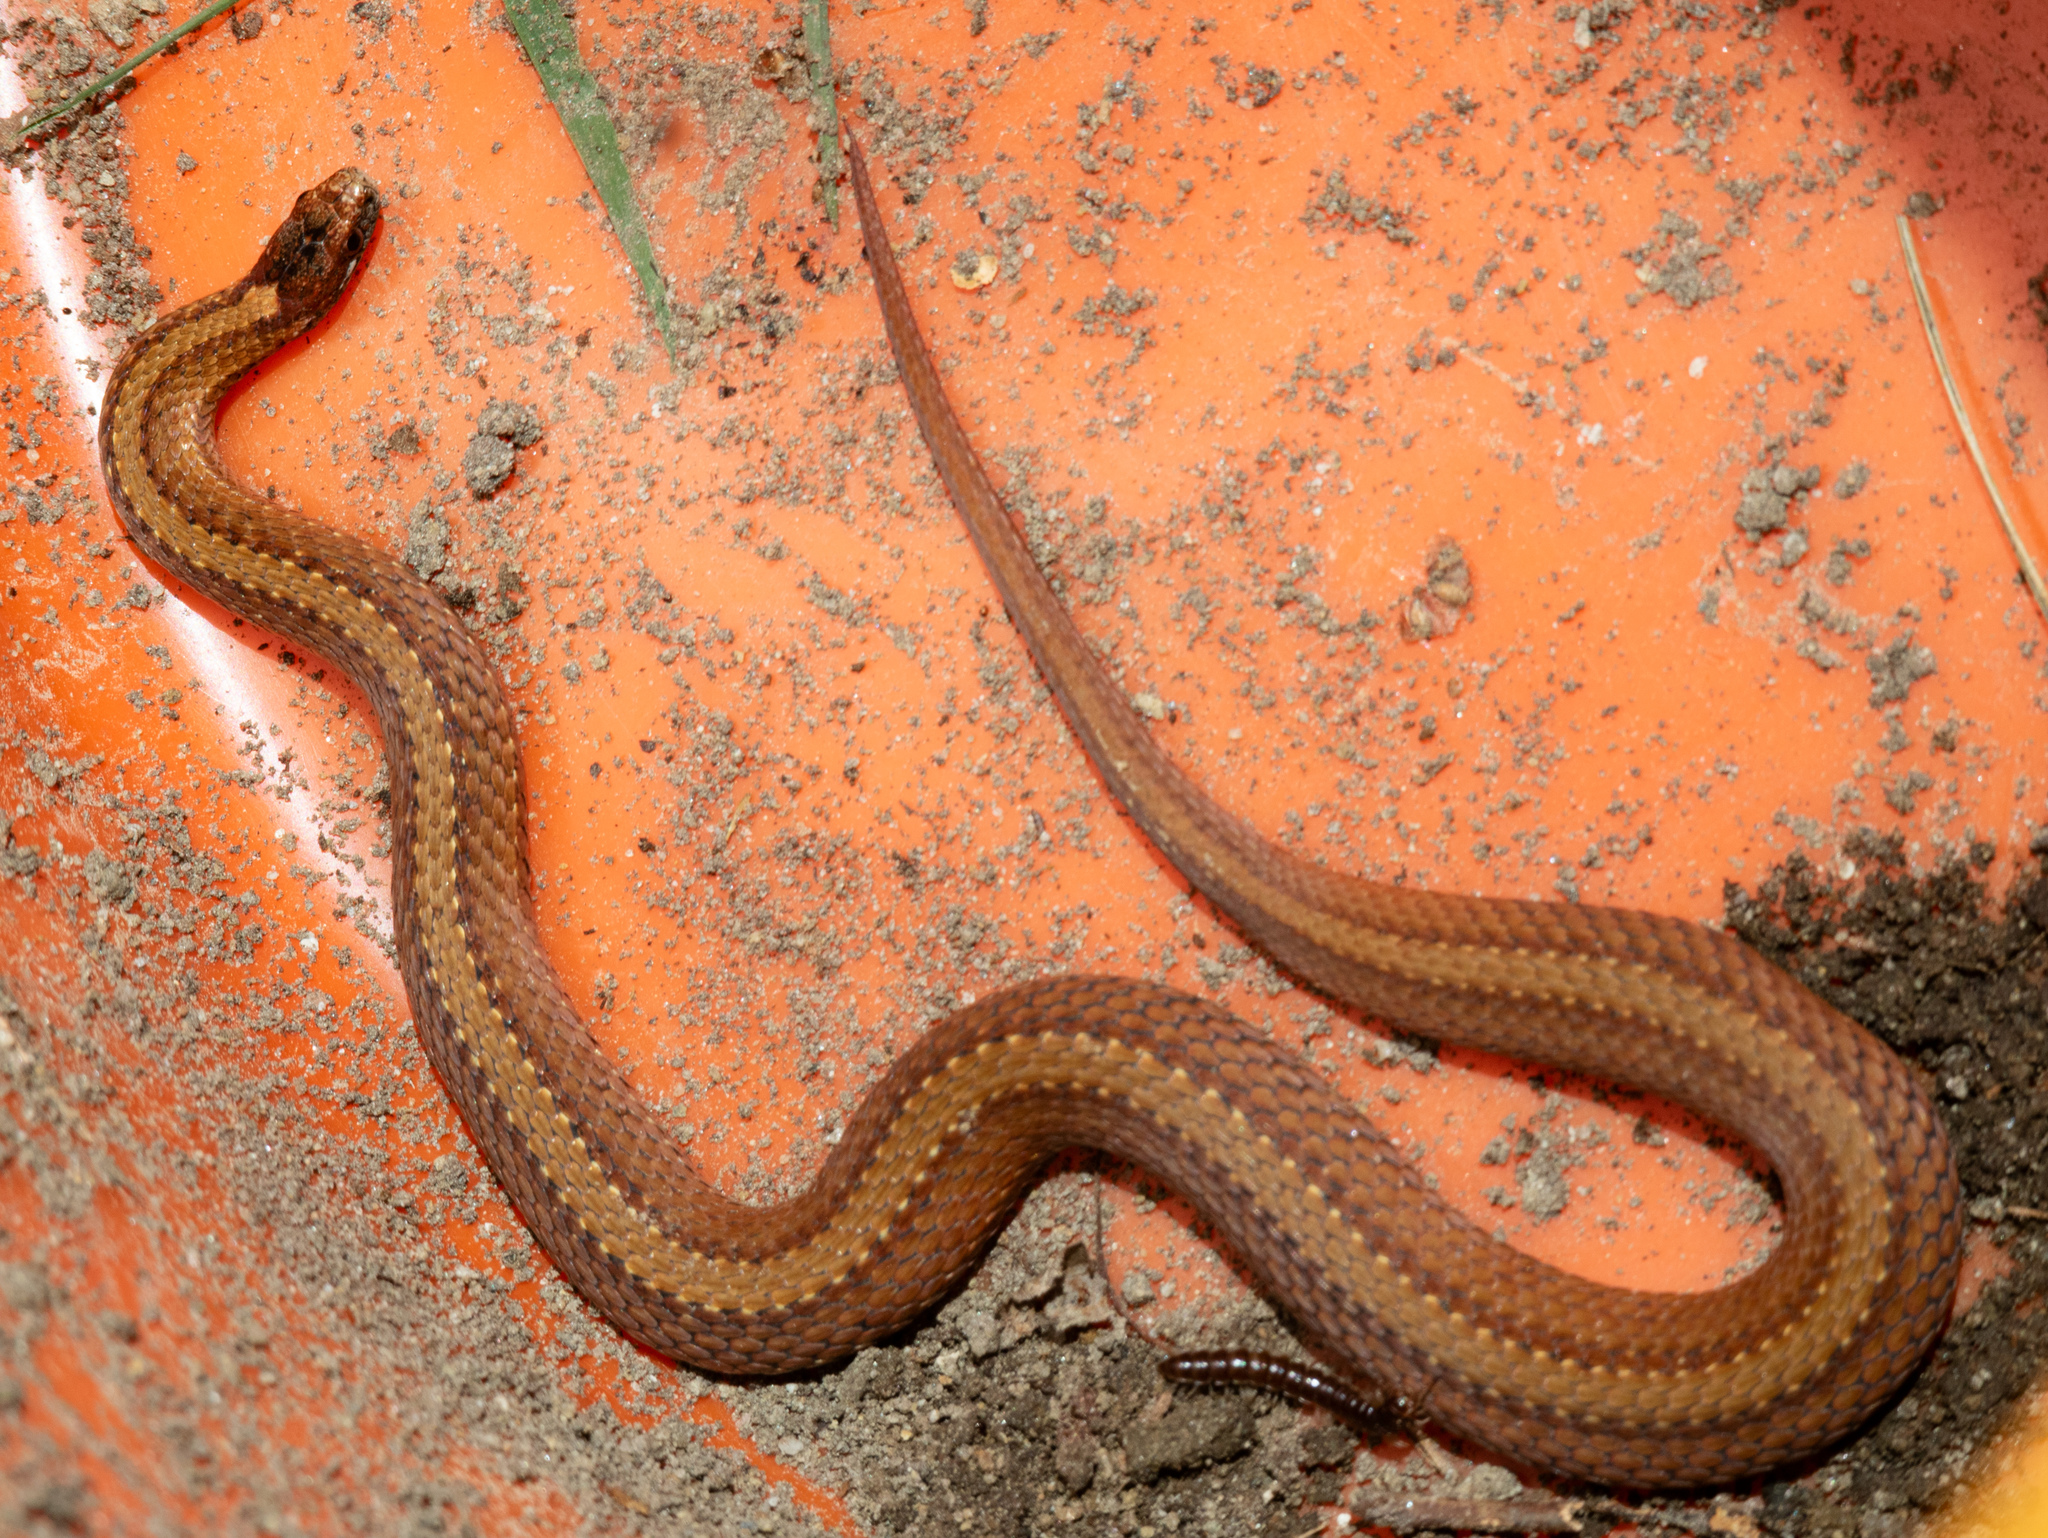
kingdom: Animalia
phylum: Chordata
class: Squamata
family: Colubridae
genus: Storeria
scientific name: Storeria occipitomaculata
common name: Redbelly snake
